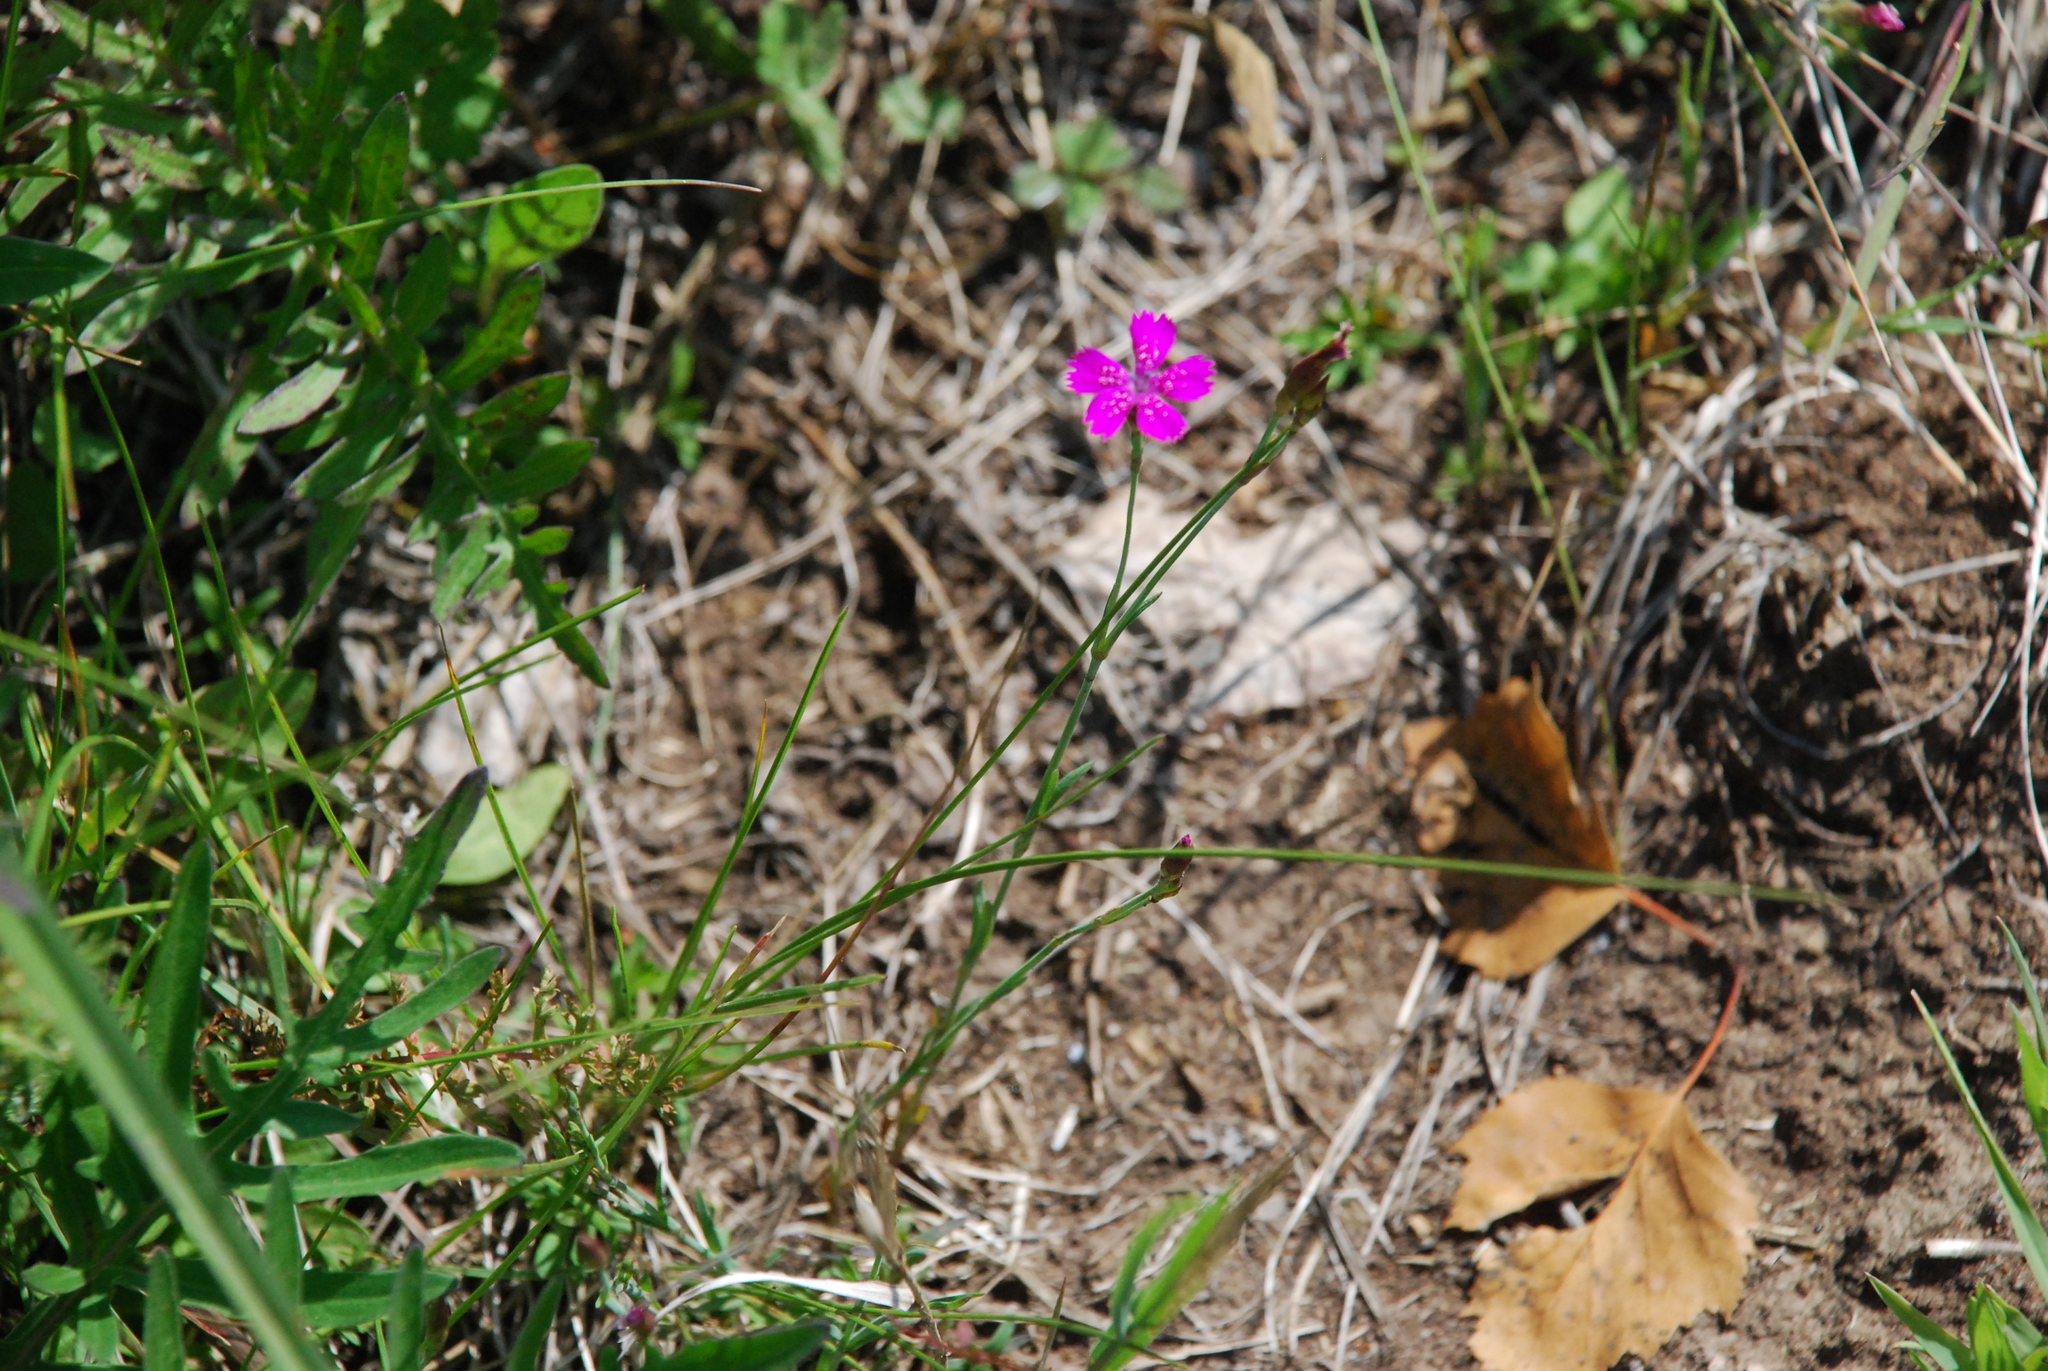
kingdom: Plantae
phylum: Tracheophyta
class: Magnoliopsida
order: Caryophyllales
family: Caryophyllaceae
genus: Dianthus
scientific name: Dianthus deltoides
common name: Maiden pink
